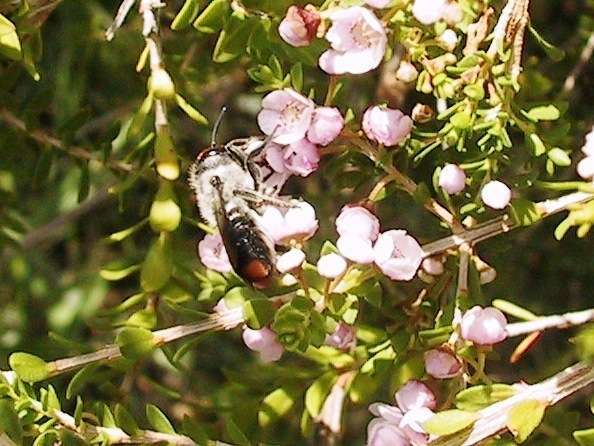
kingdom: Animalia
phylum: Arthropoda
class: Insecta
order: Hymenoptera
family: Megachilidae
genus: Megachile
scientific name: Megachile erythropyga
